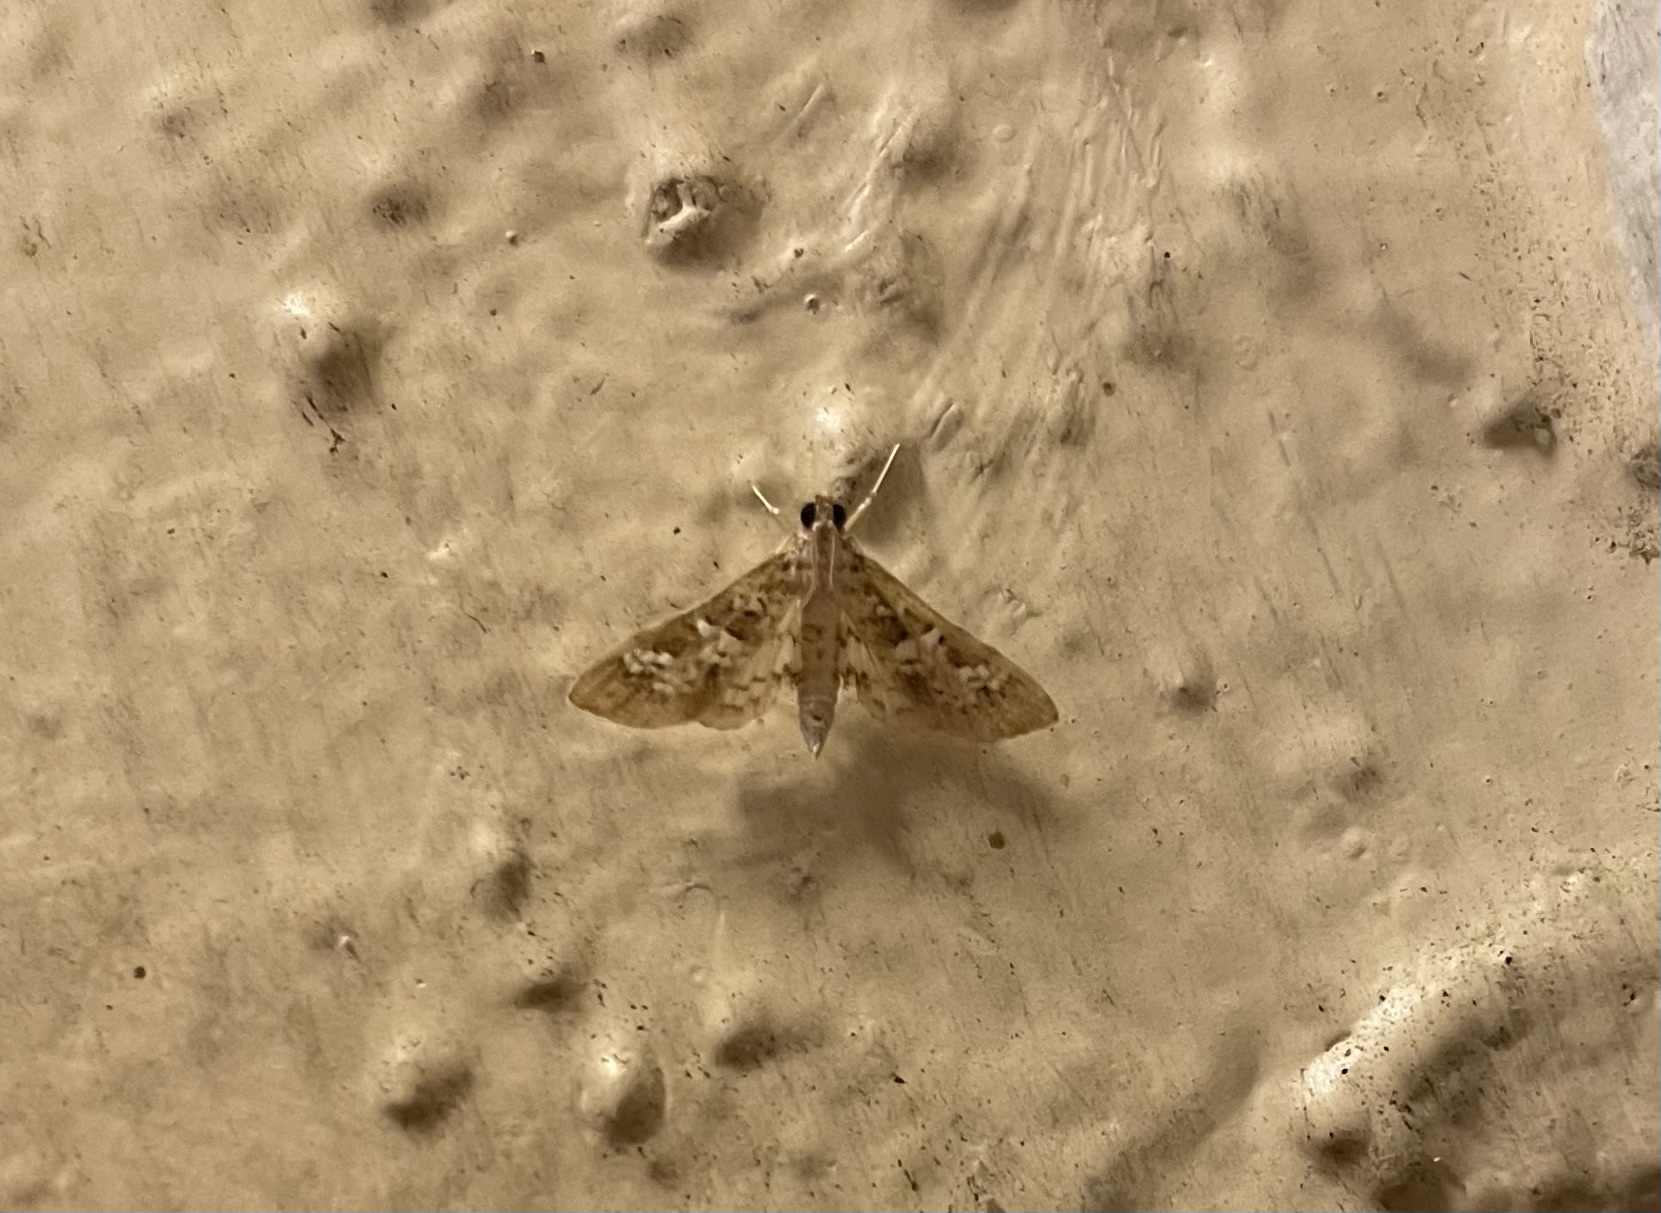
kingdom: Animalia
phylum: Arthropoda
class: Insecta
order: Lepidoptera
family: Crambidae
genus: Samea
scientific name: Samea multiplicalis
